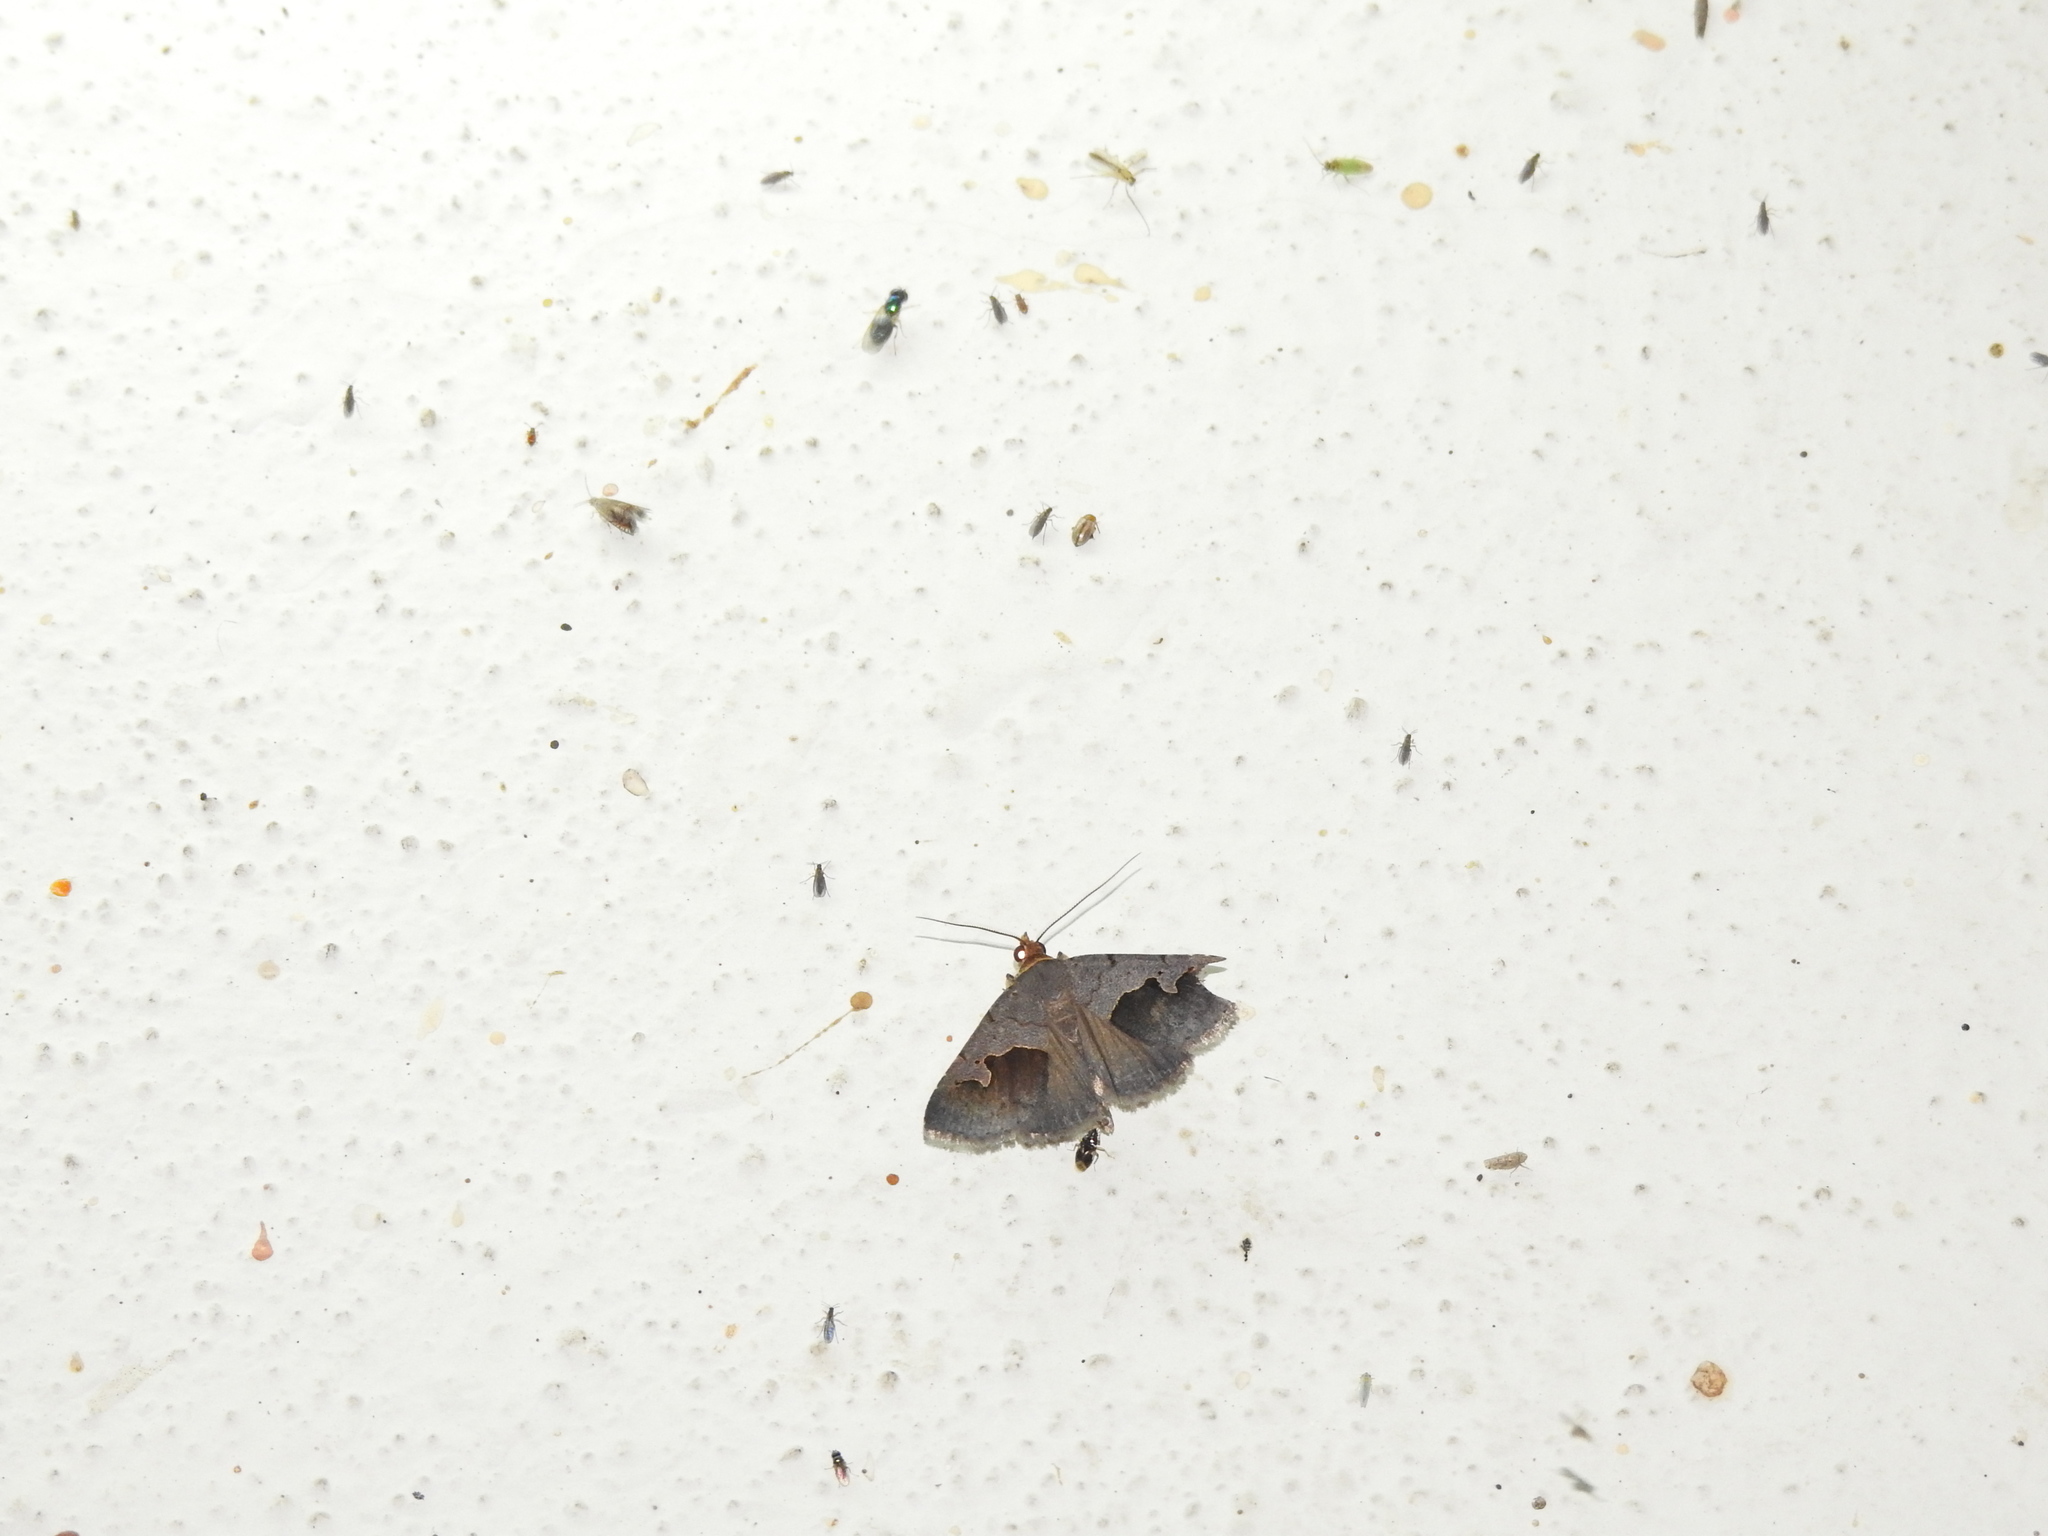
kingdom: Animalia
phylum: Arthropoda
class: Insecta
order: Lepidoptera
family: Erebidae
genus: Baniana
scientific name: Baniana semilugens
